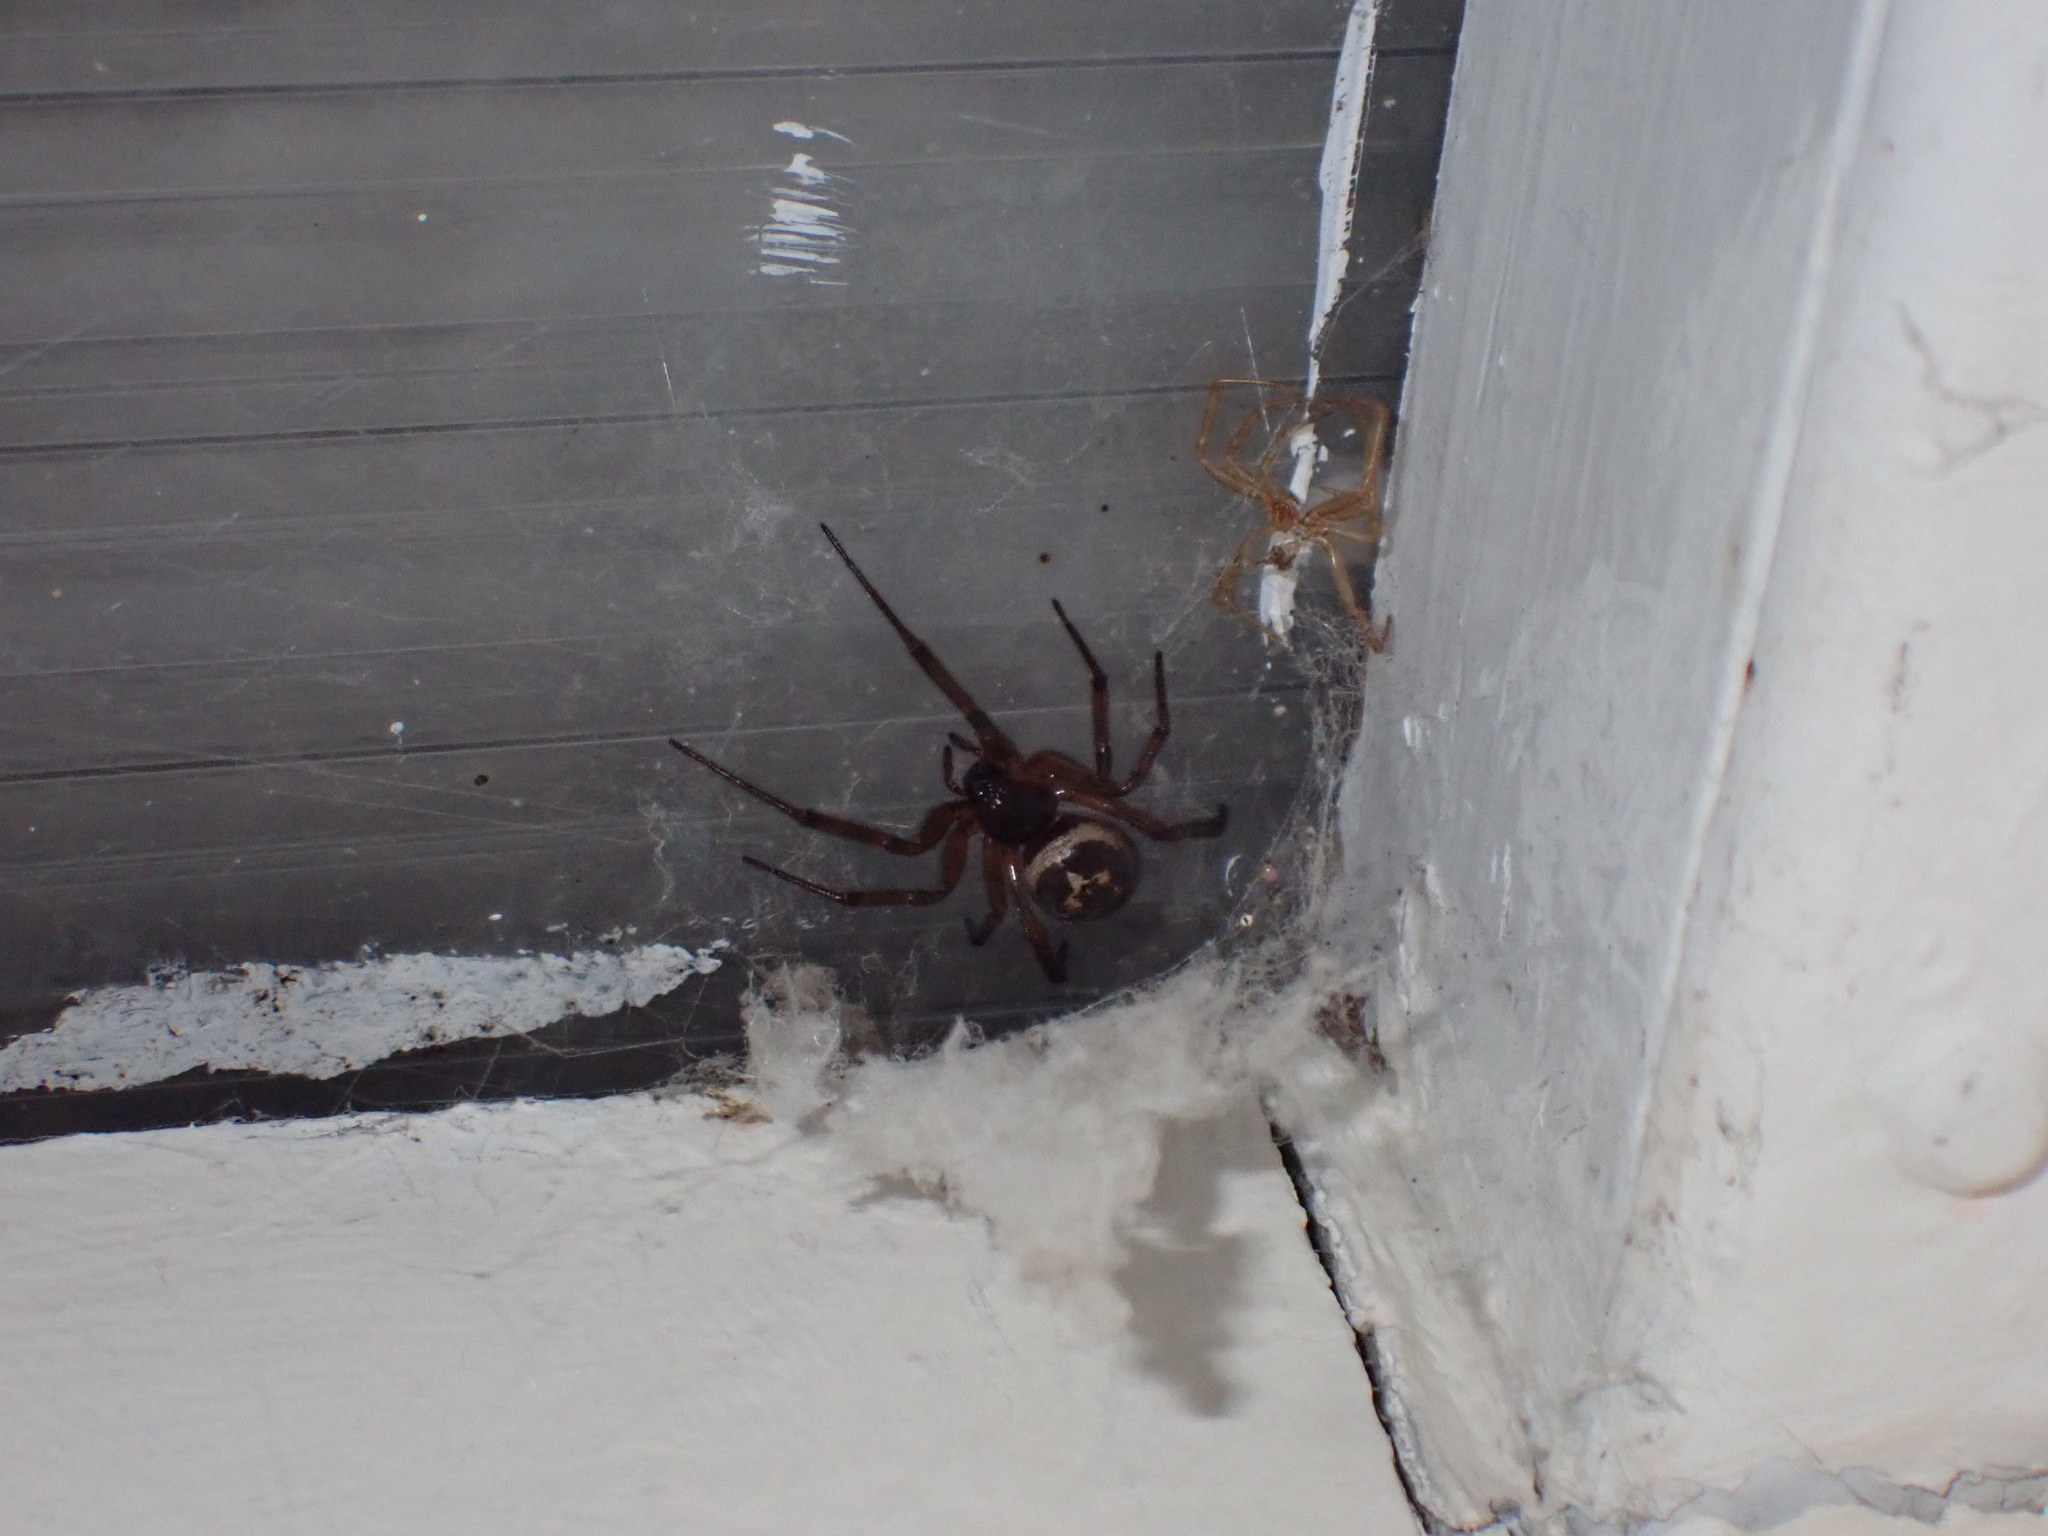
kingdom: Animalia
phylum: Arthropoda
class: Arachnida
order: Araneae
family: Theridiidae
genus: Steatoda
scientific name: Steatoda nobilis
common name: Cobweb weaver
